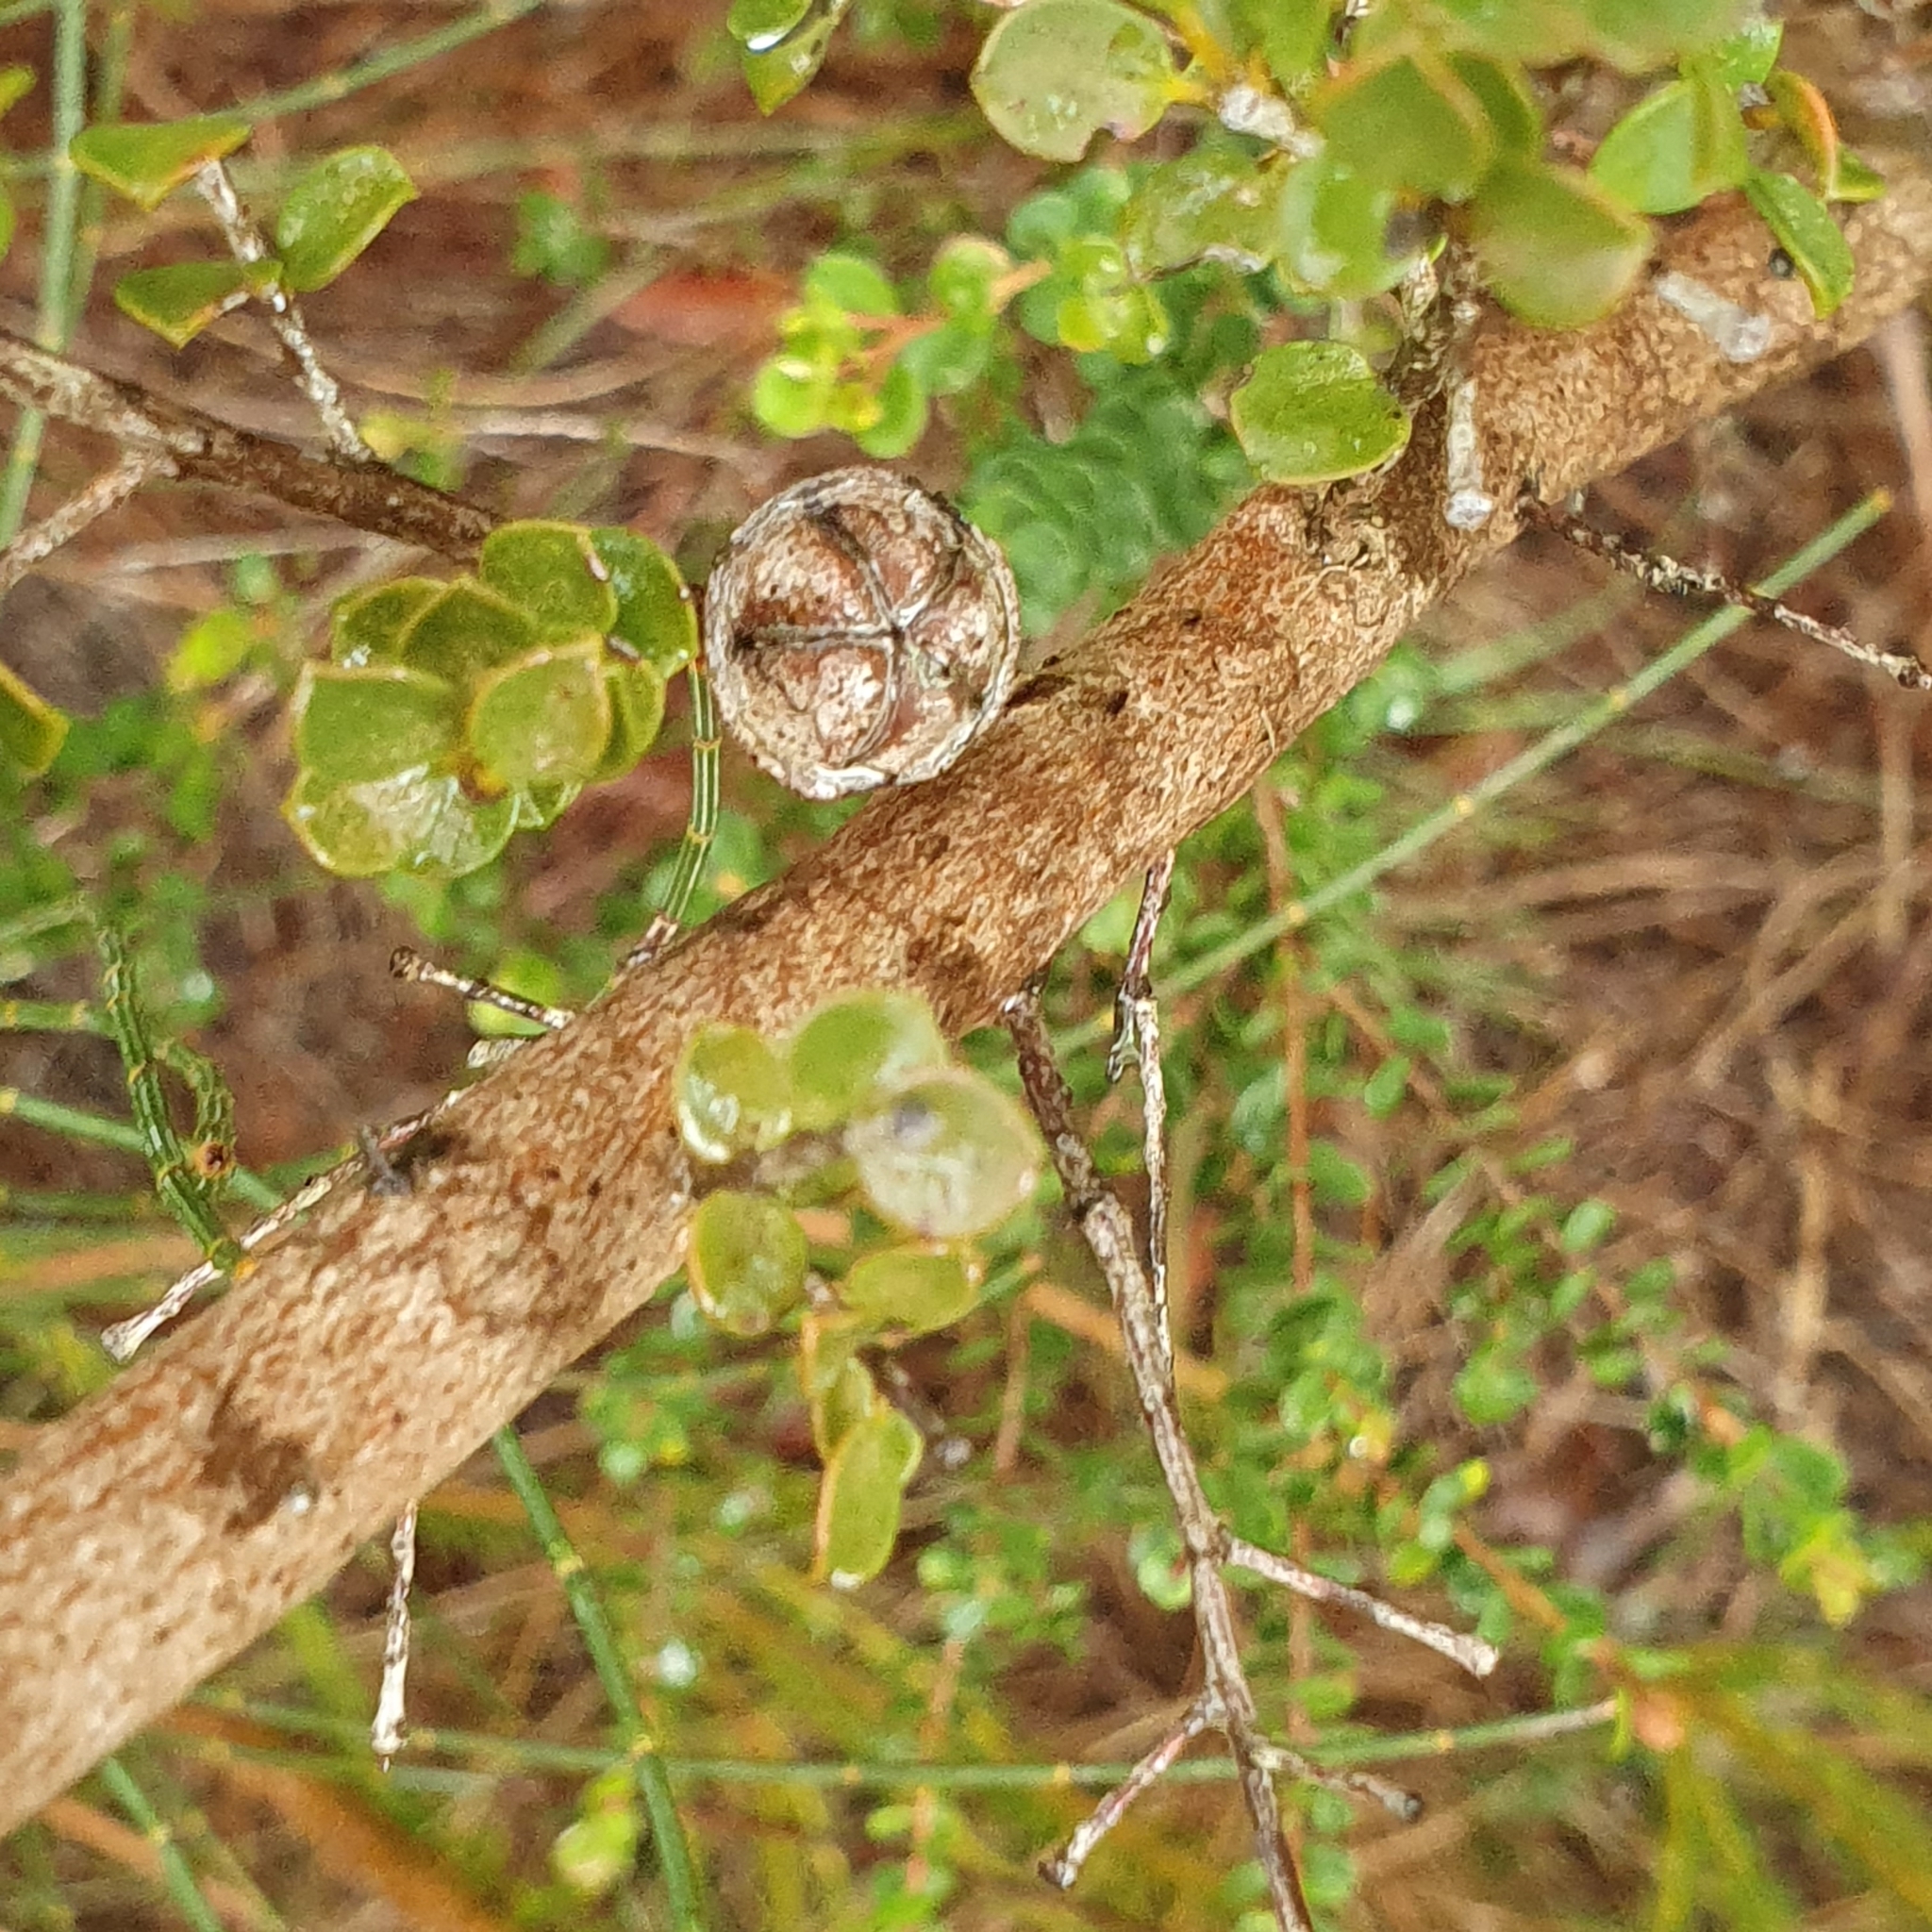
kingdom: Plantae
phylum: Tracheophyta
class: Magnoliopsida
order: Myrtales
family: Myrtaceae
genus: Leptospermum
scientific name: Leptospermum rotundifolium
